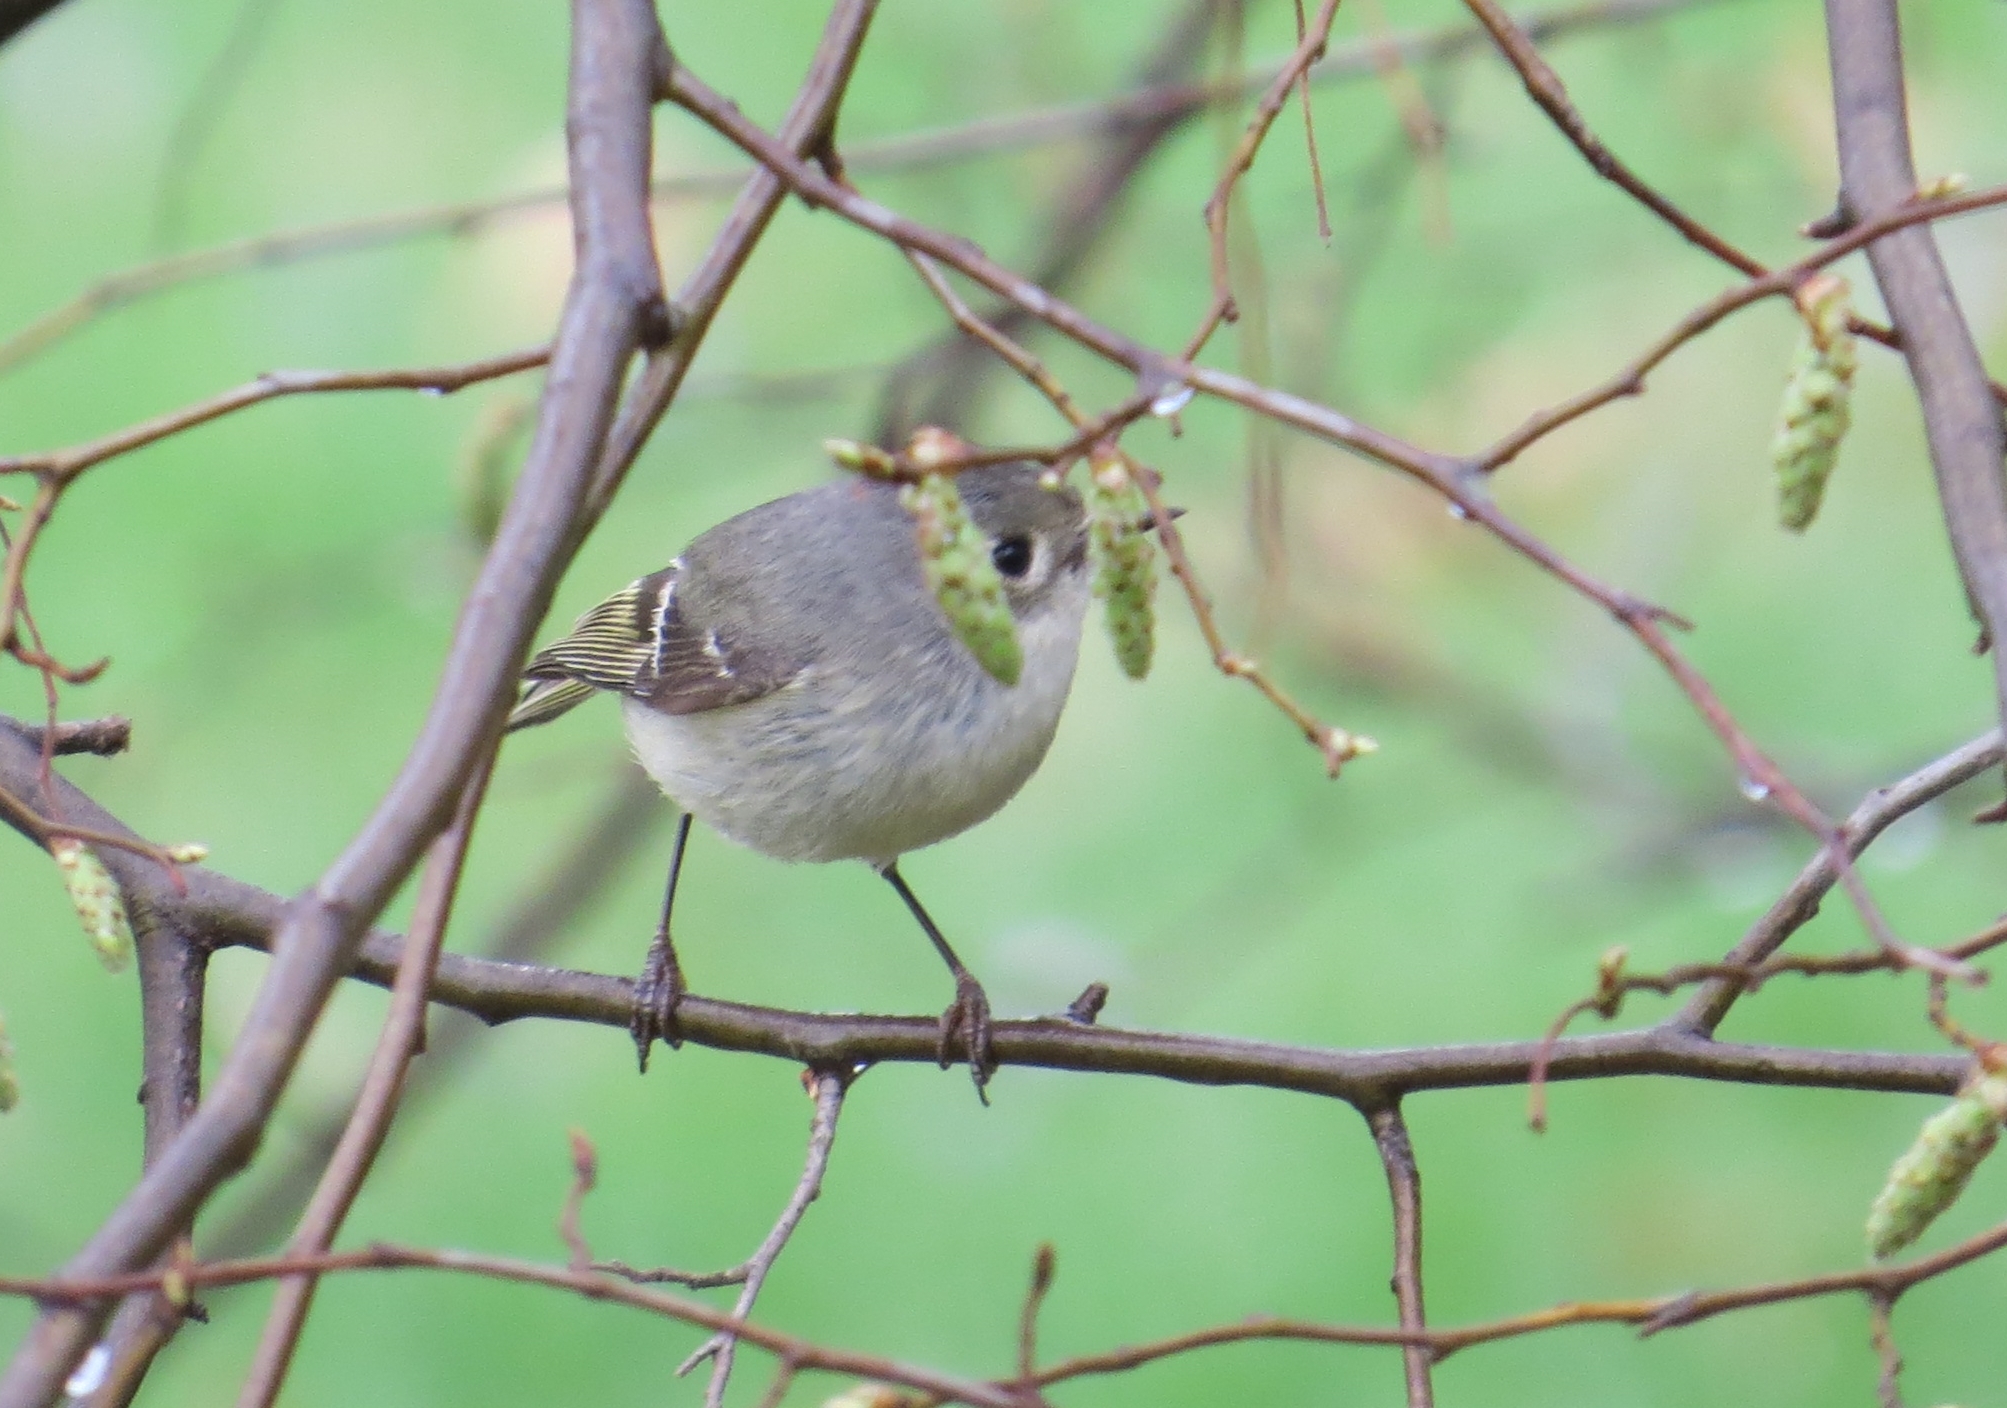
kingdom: Animalia
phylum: Chordata
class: Aves
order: Passeriformes
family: Regulidae
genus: Regulus
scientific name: Regulus calendula
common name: Ruby-crowned kinglet
